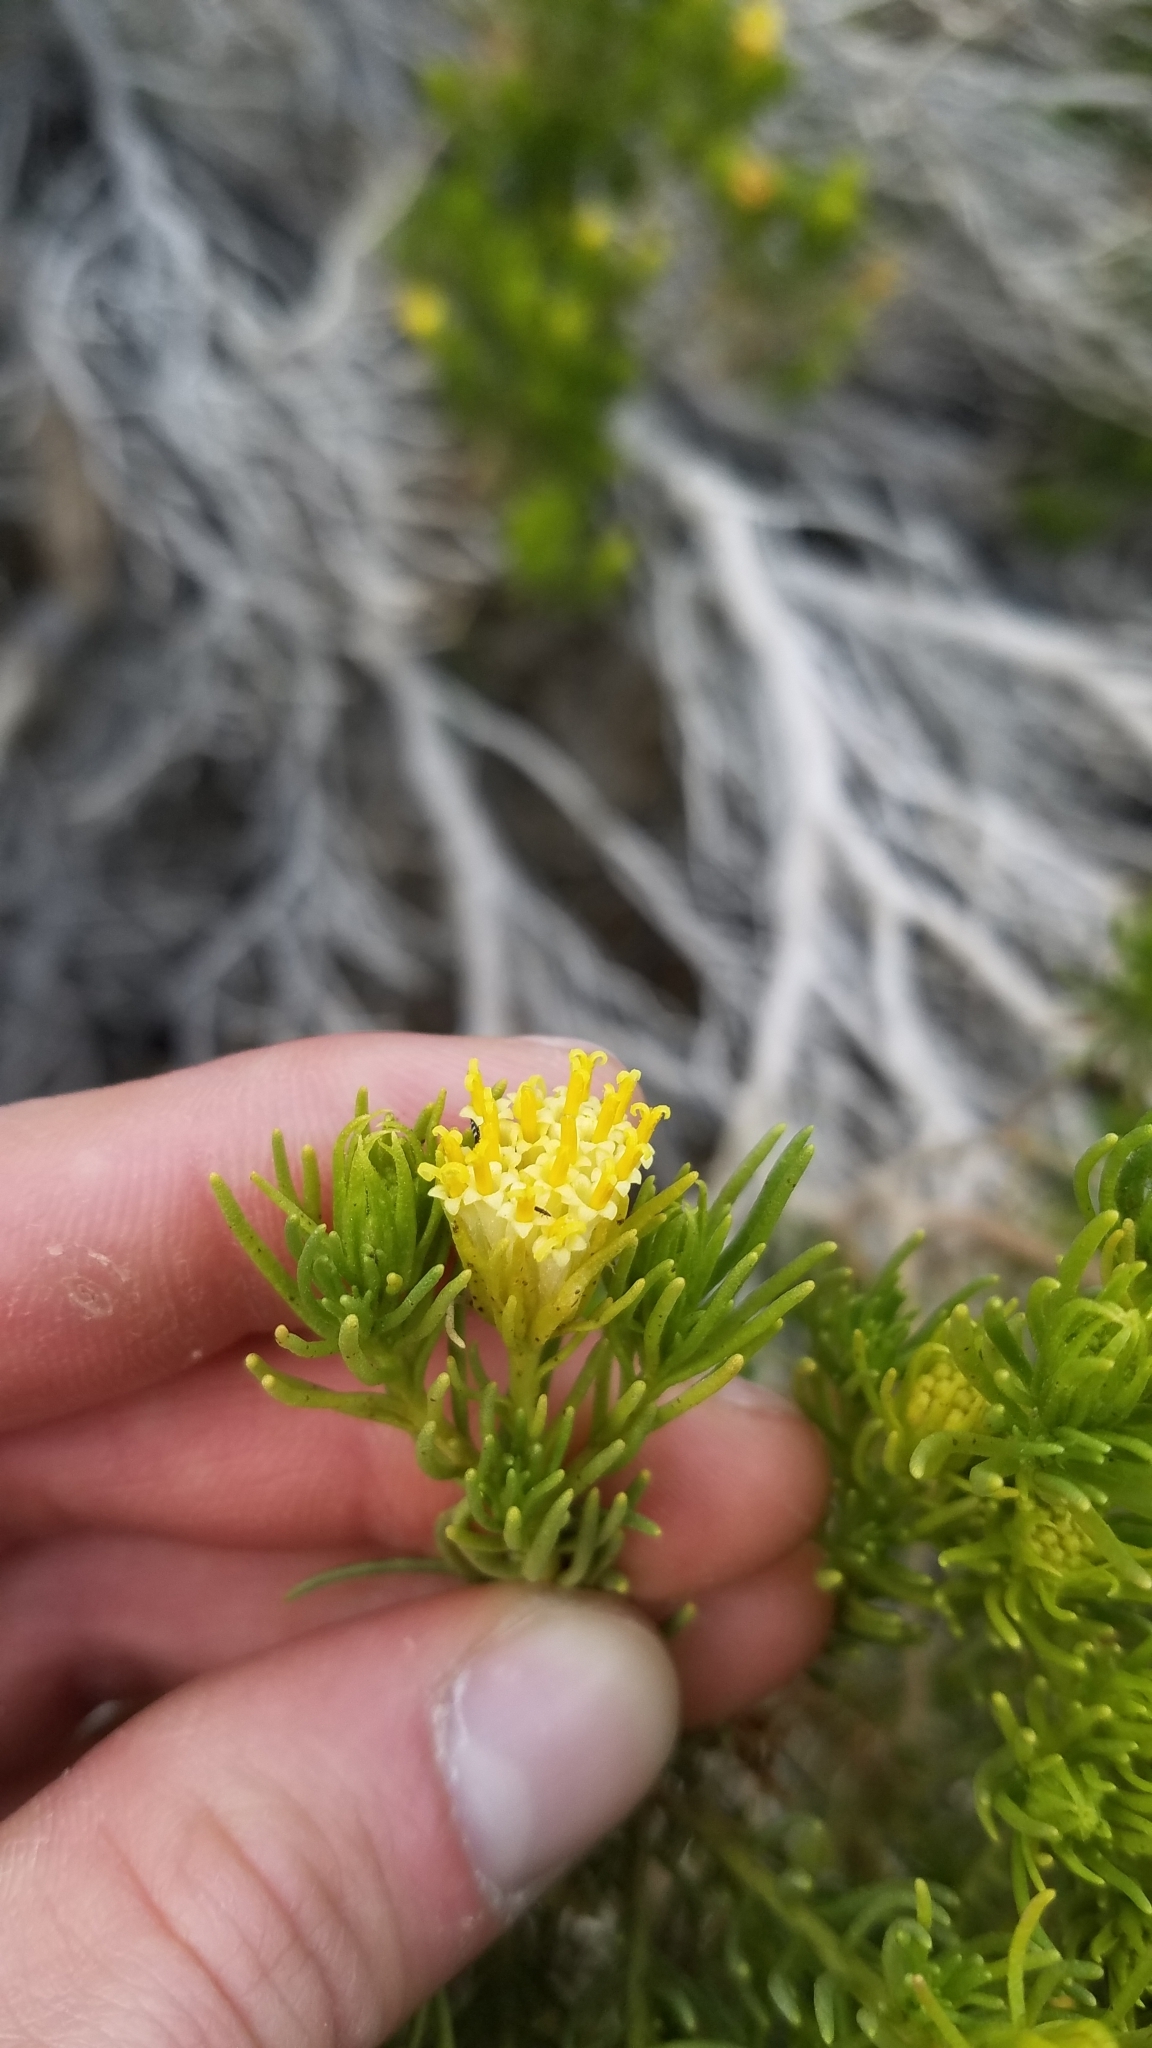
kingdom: Plantae
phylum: Tracheophyta
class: Magnoliopsida
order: Asterales
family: Asteraceae
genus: Peucephyllum
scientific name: Peucephyllum schottii
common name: Pygmy-cedar
